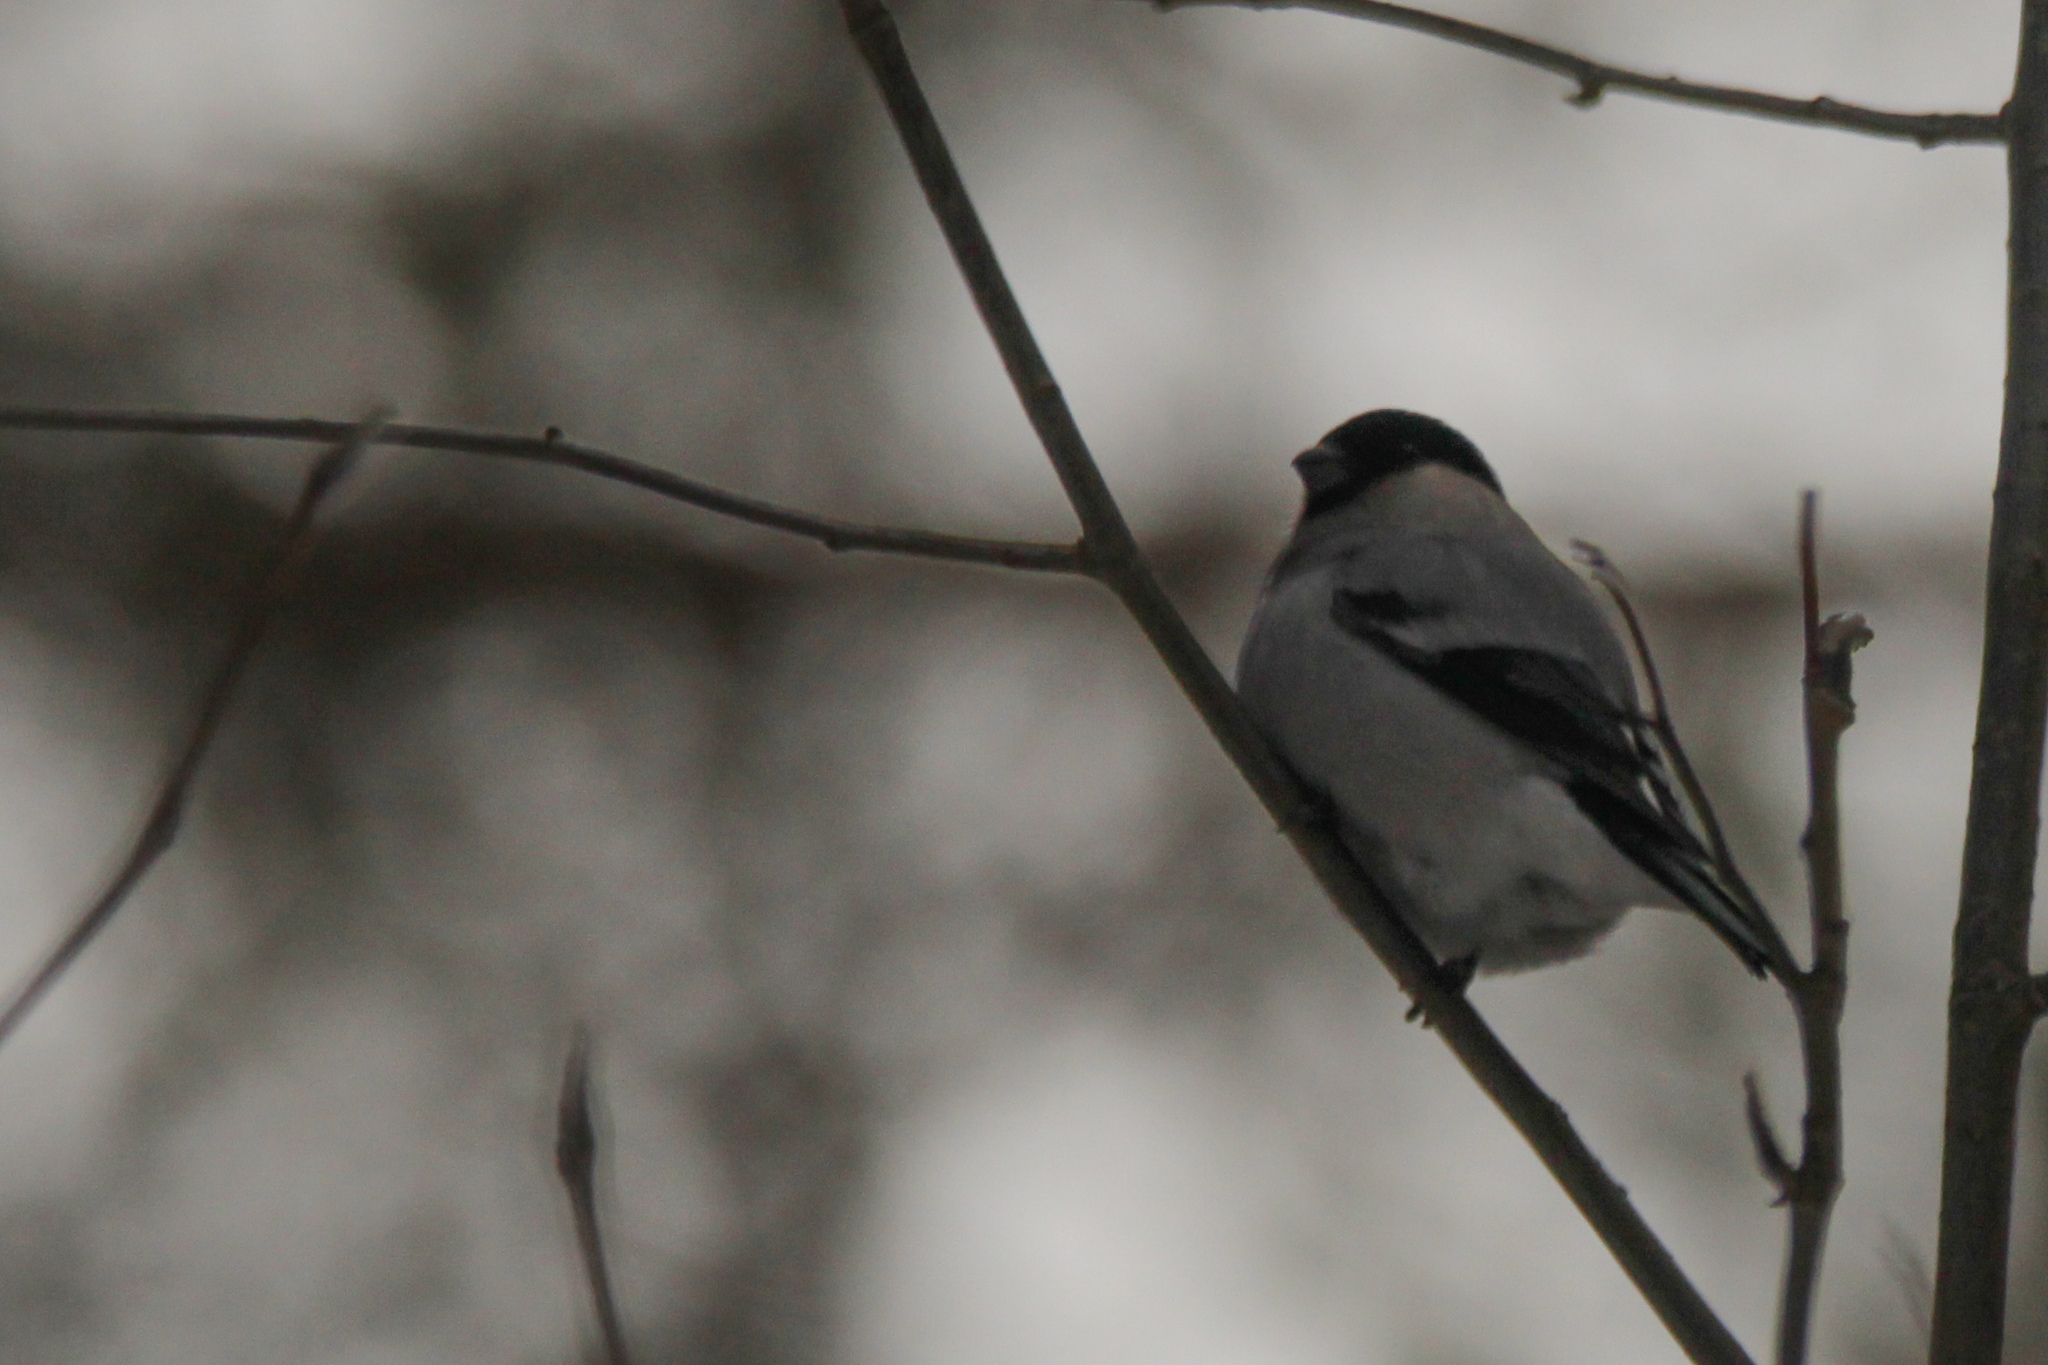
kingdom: Animalia
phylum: Chordata
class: Aves
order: Passeriformes
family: Fringillidae
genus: Pyrrhula
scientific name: Pyrrhula pyrrhula
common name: Eurasian bullfinch
